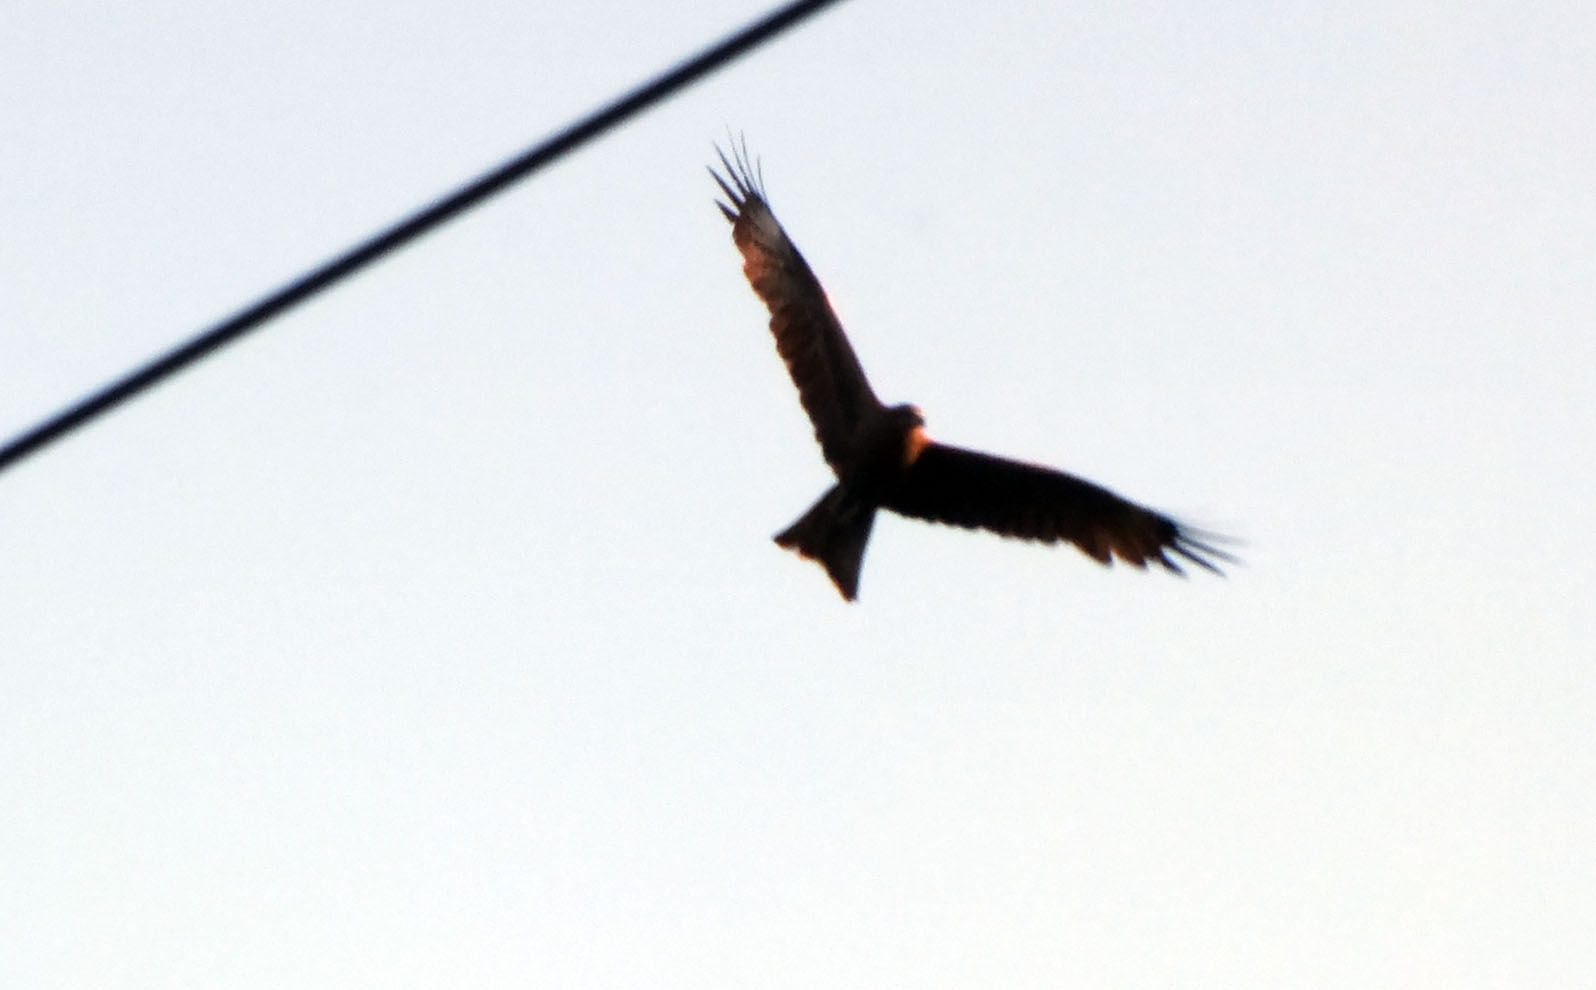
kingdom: Animalia
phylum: Chordata
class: Aves
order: Accipitriformes
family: Accipitridae
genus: Milvus
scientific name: Milvus migrans
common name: Black kite
